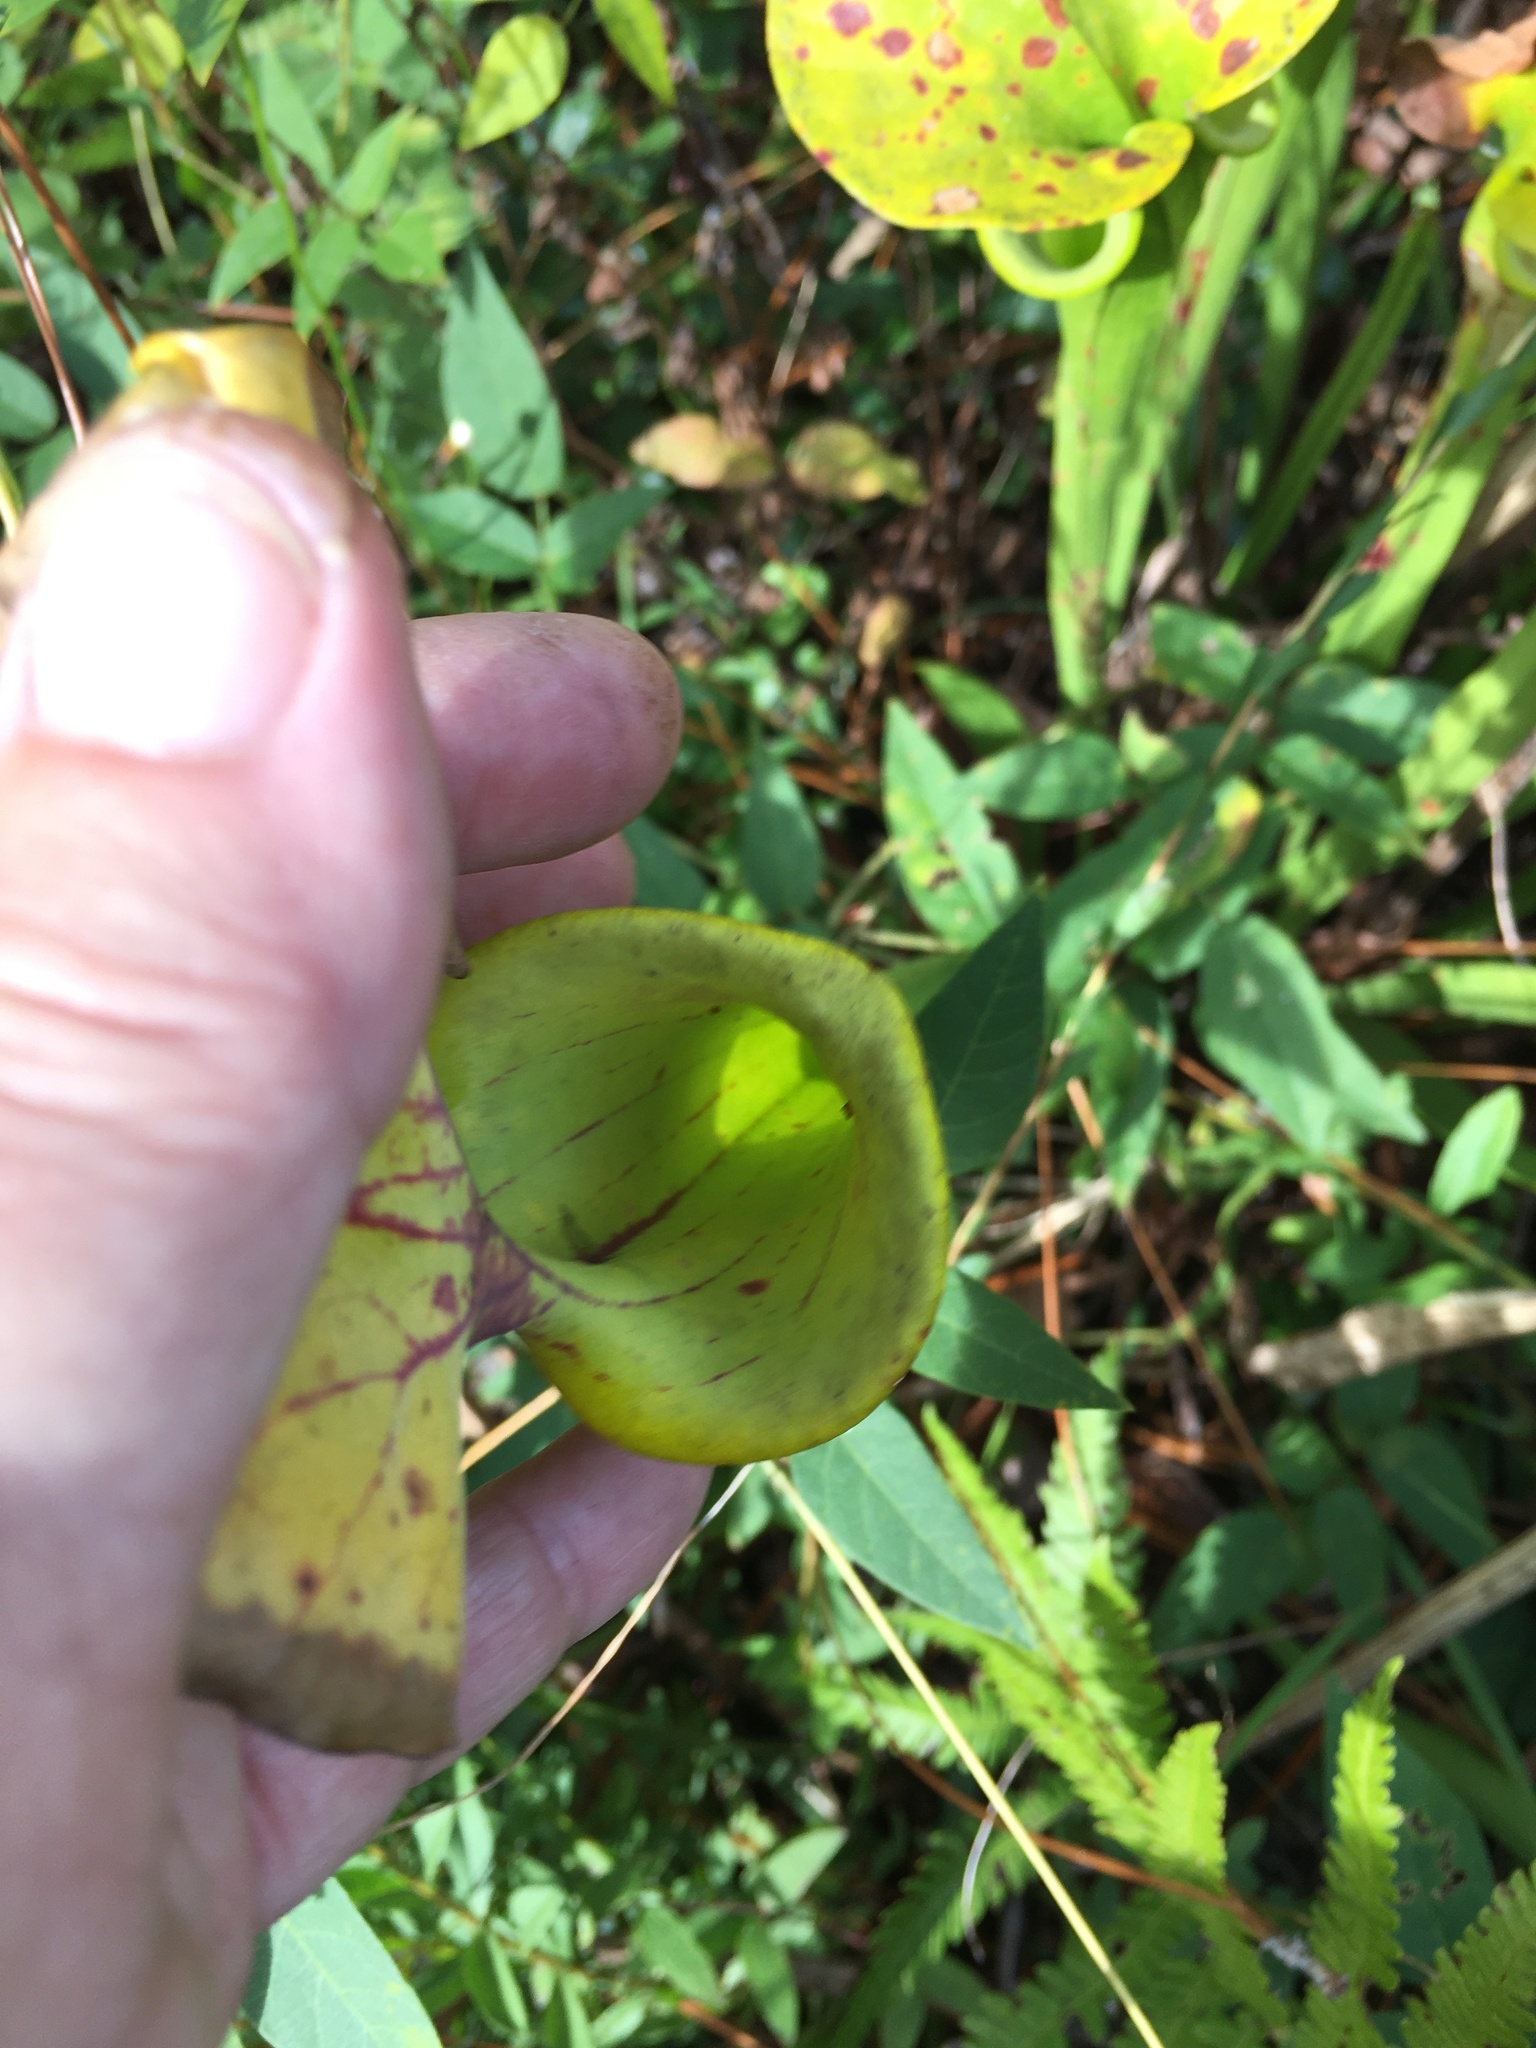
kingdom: Plantae
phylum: Tracheophyta
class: Magnoliopsida
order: Ericales
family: Sarraceniaceae
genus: Sarracenia
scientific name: Sarracenia flava
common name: Trumpets
